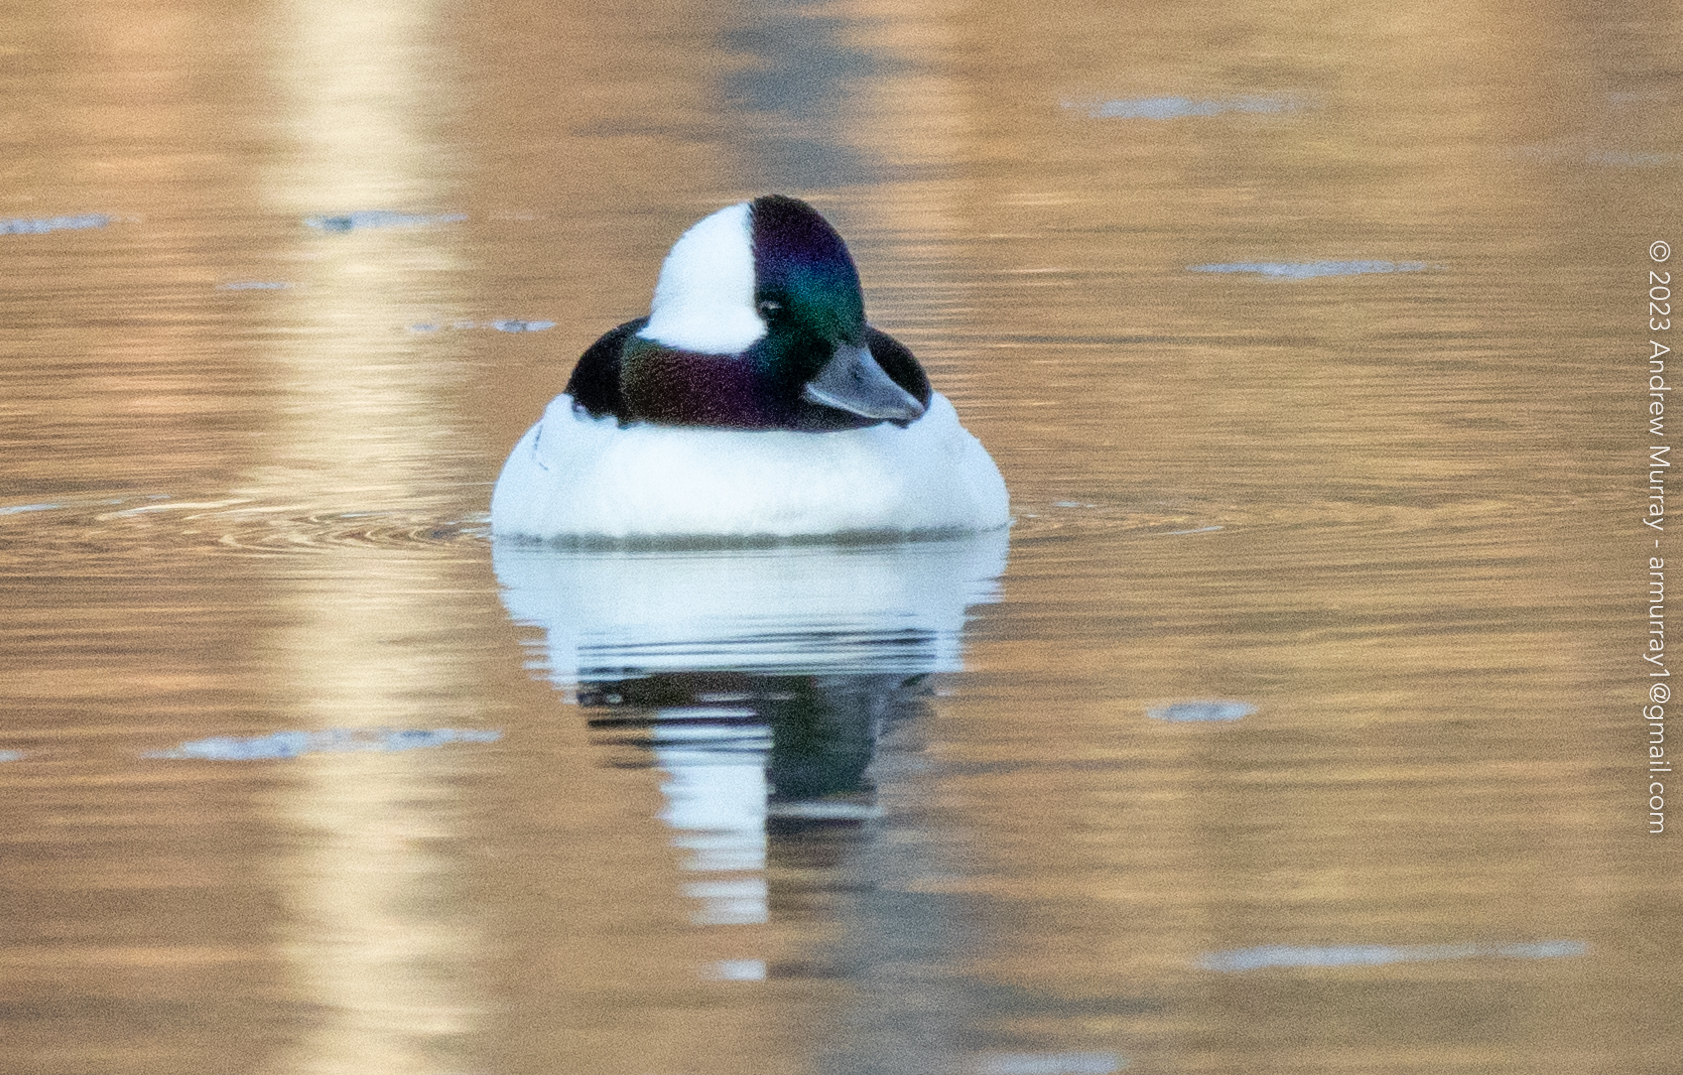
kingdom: Animalia
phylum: Chordata
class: Aves
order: Anseriformes
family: Anatidae
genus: Bucephala
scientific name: Bucephala albeola
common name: Bufflehead
